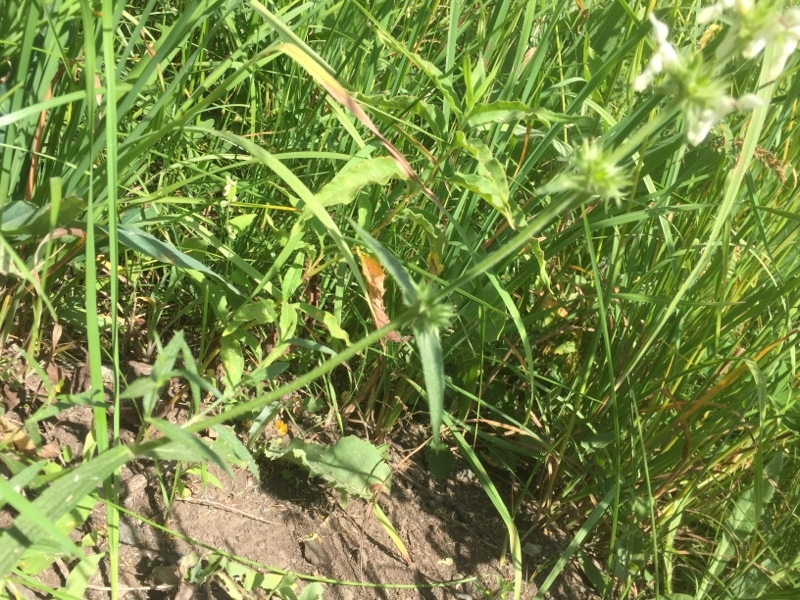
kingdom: Plantae
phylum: Tracheophyta
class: Magnoliopsida
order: Lamiales
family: Lamiaceae
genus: Stachys
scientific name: Stachys recta
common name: Perennial yellow-woundwort
